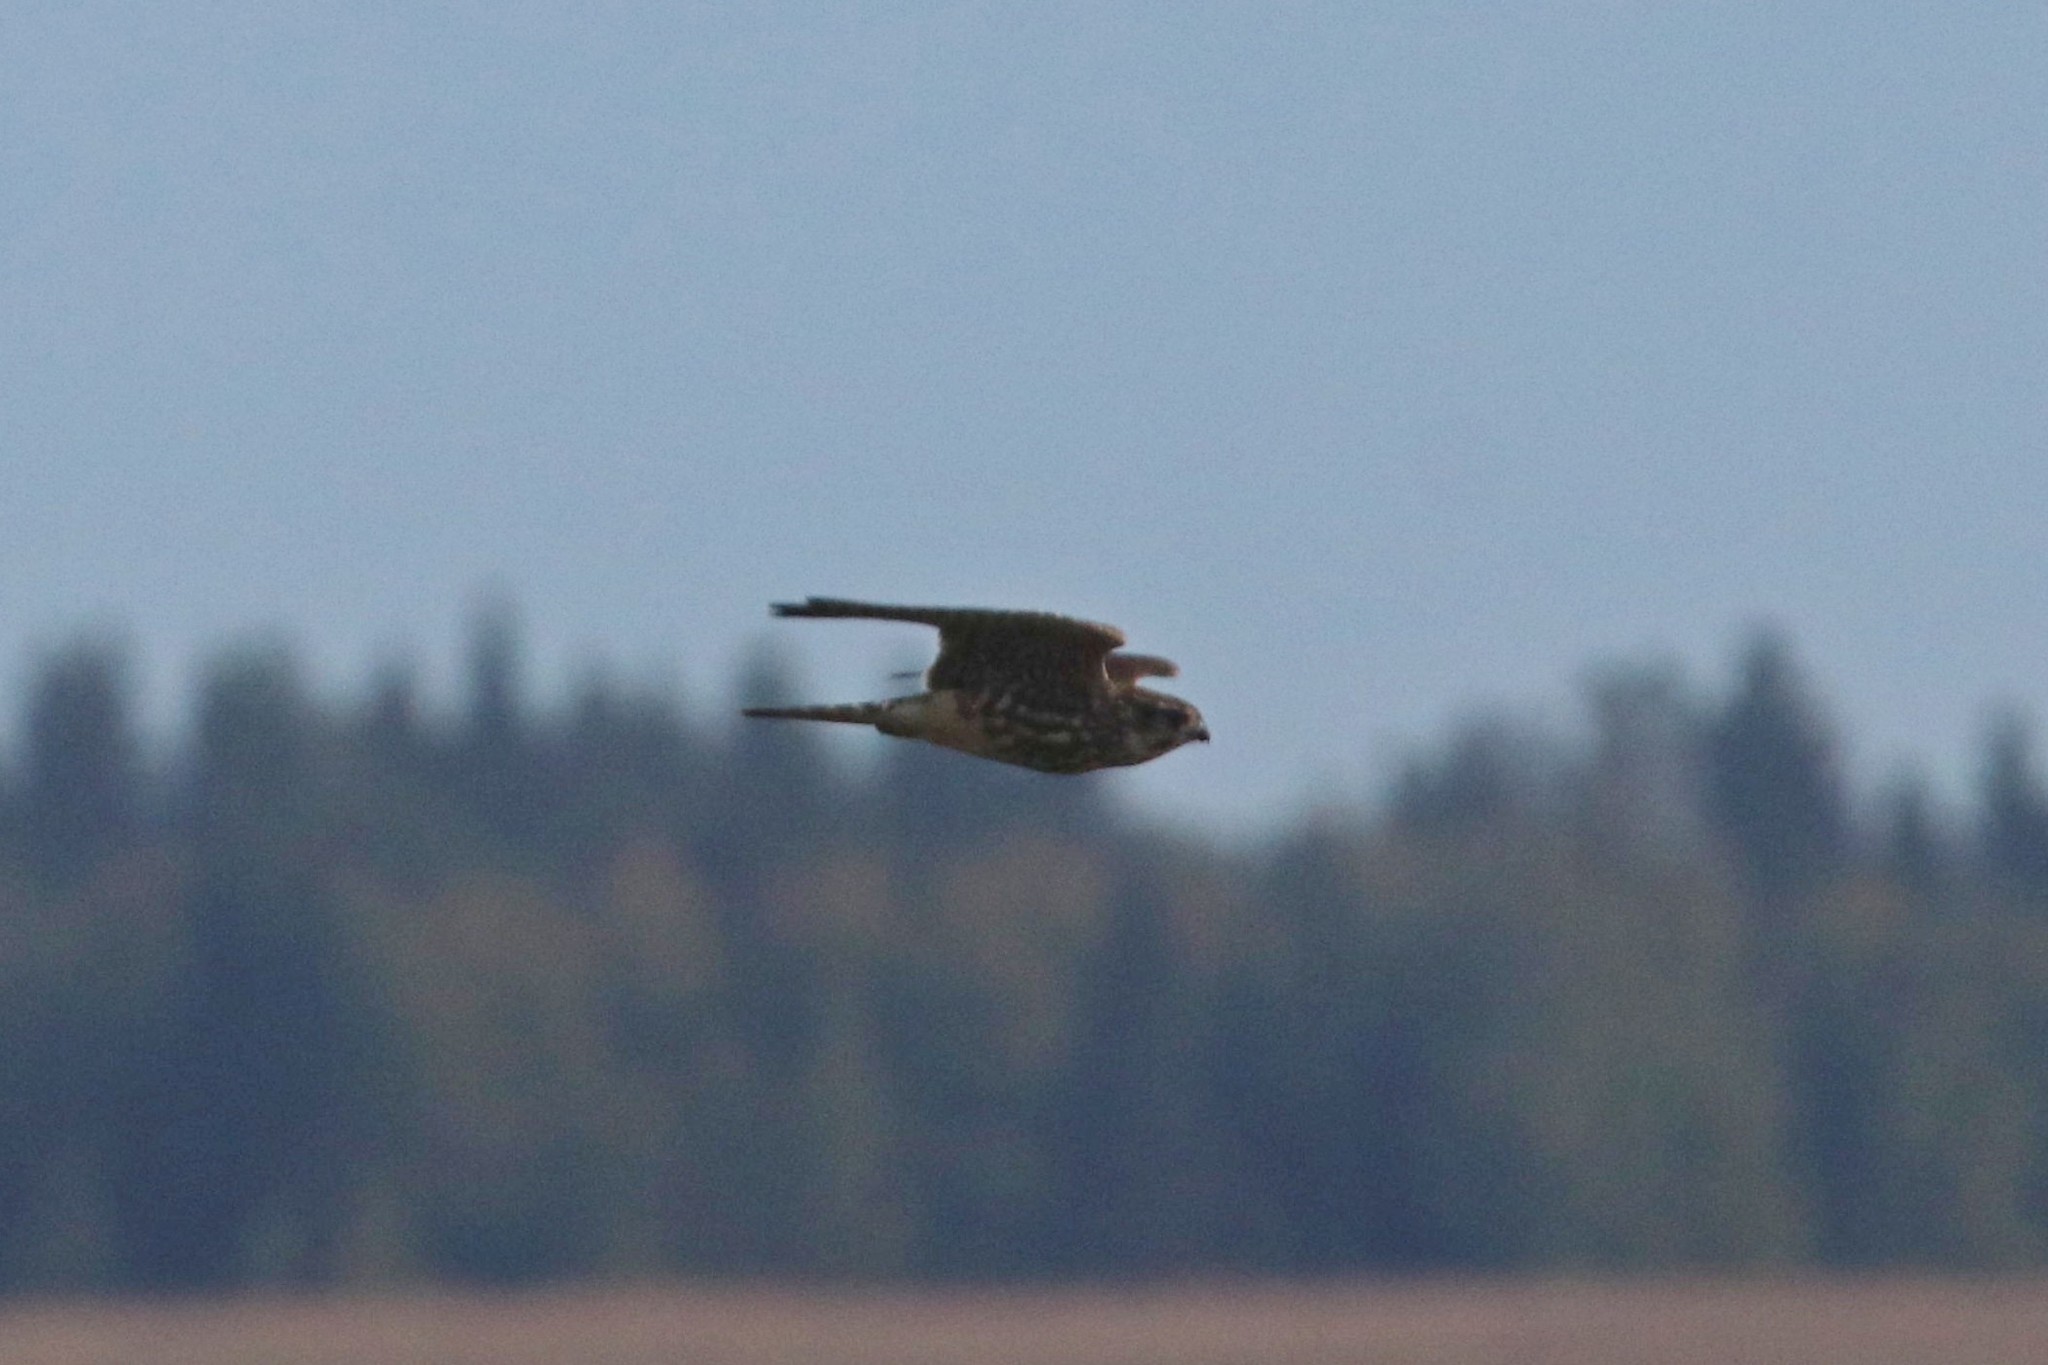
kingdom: Animalia
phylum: Chordata
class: Aves
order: Falconiformes
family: Falconidae
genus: Falco
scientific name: Falco columbarius
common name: Merlin
